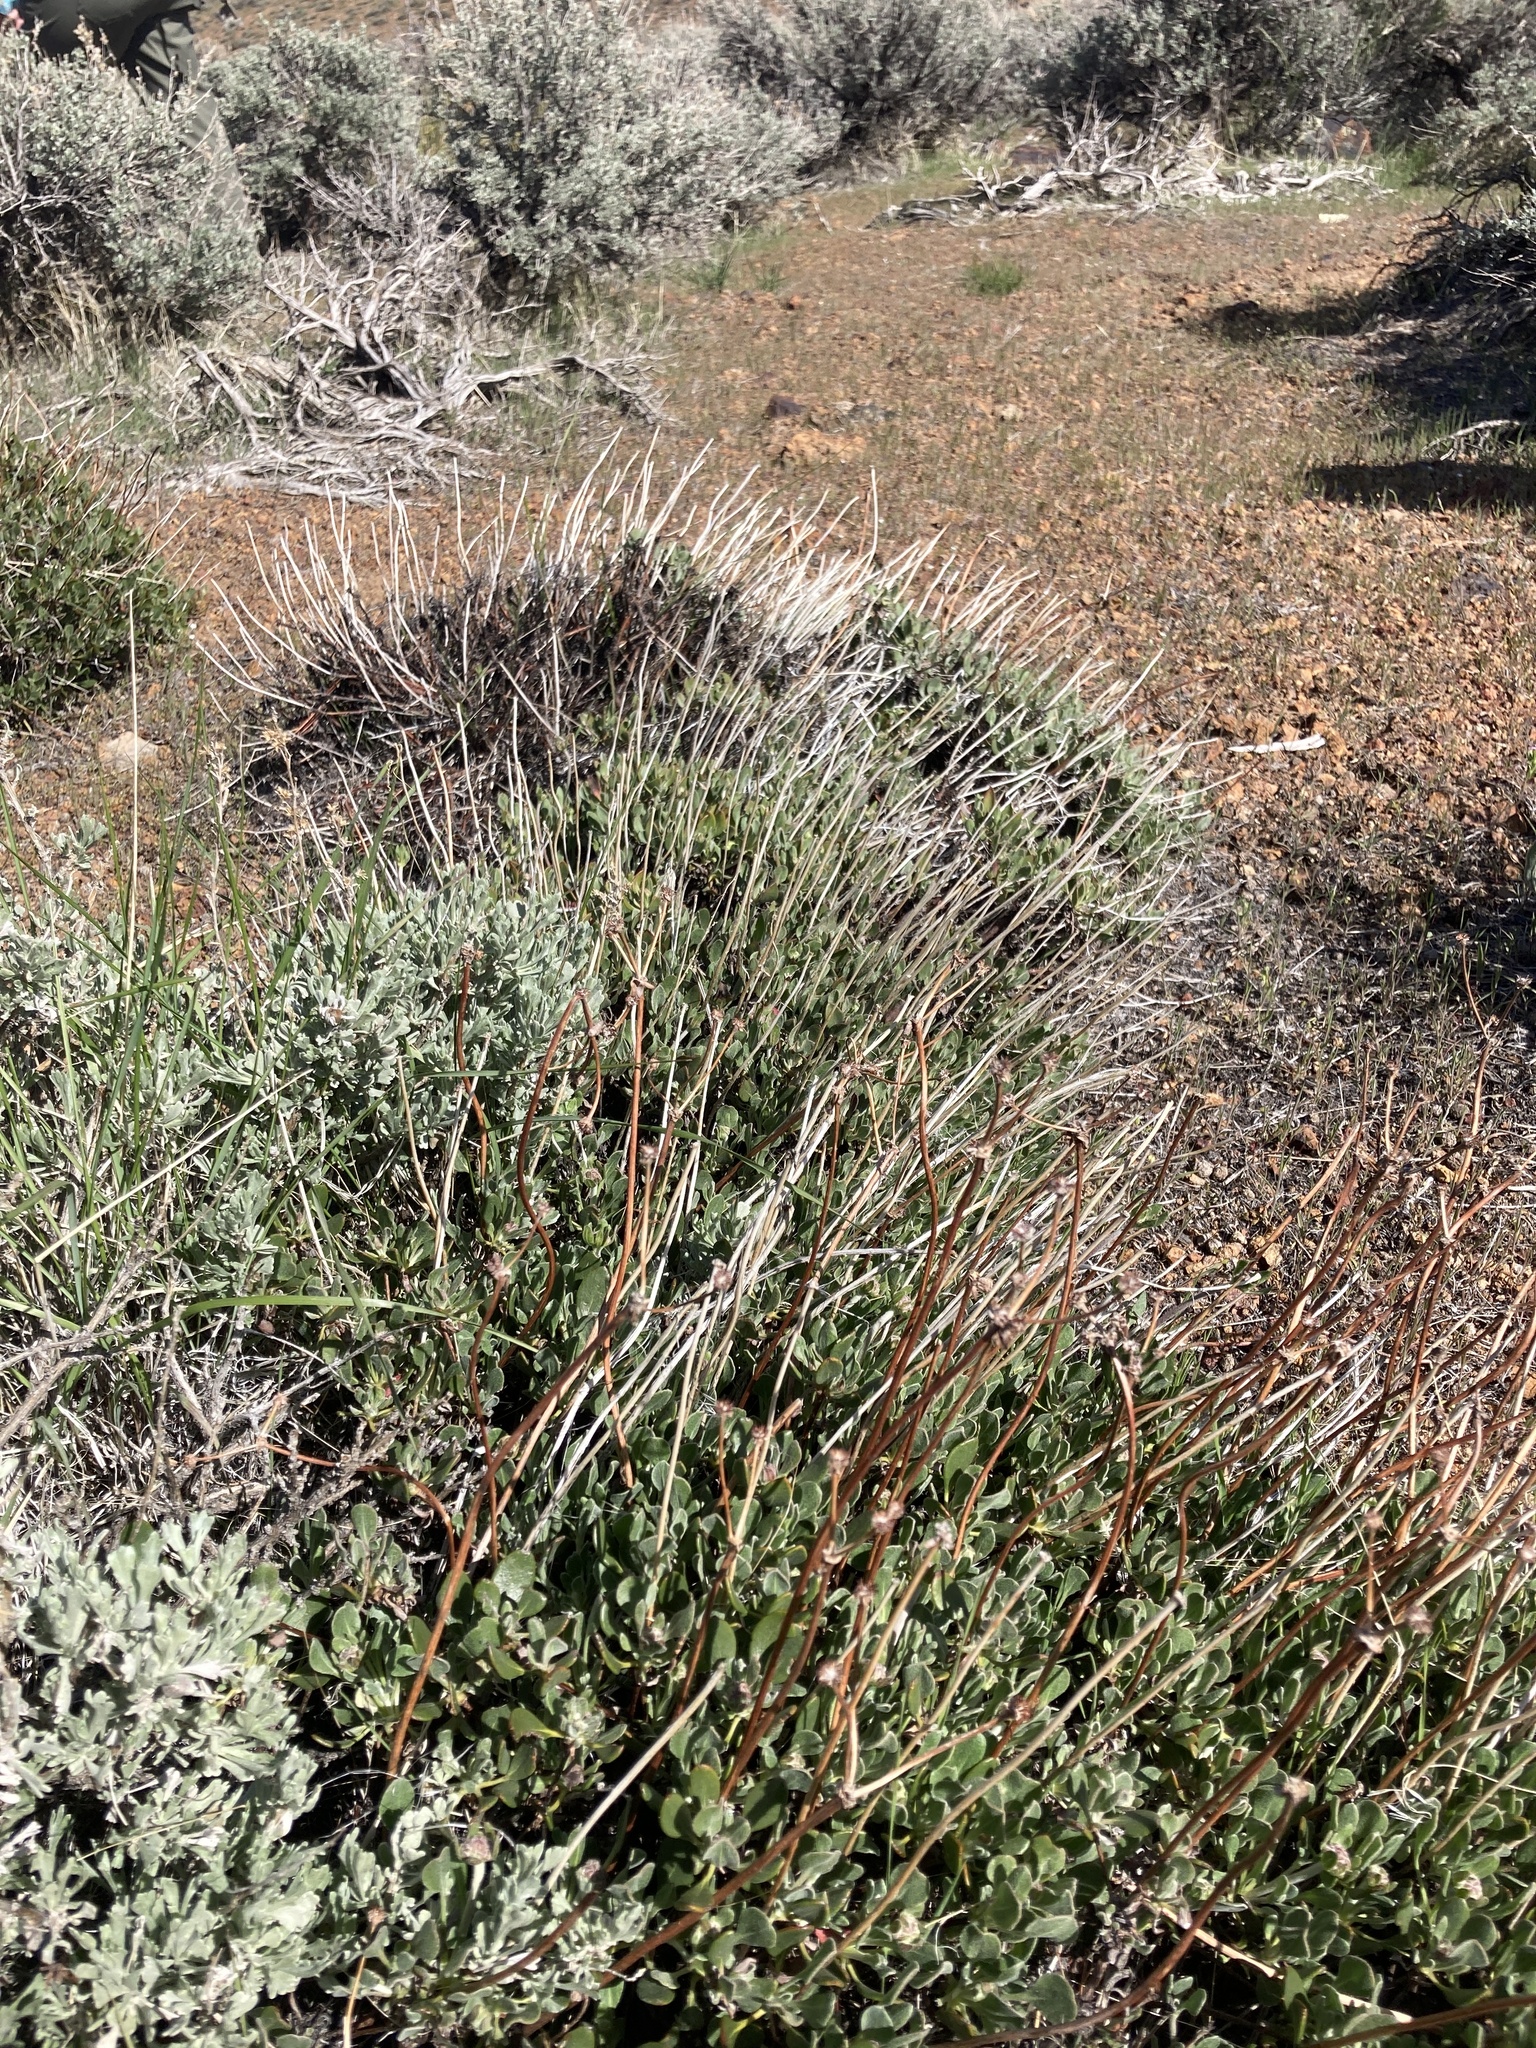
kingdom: Plantae
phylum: Tracheophyta
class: Magnoliopsida
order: Caryophyllales
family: Polygonaceae
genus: Eriogonum
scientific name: Eriogonum umbellatum
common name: Sulfur-buckwheat
